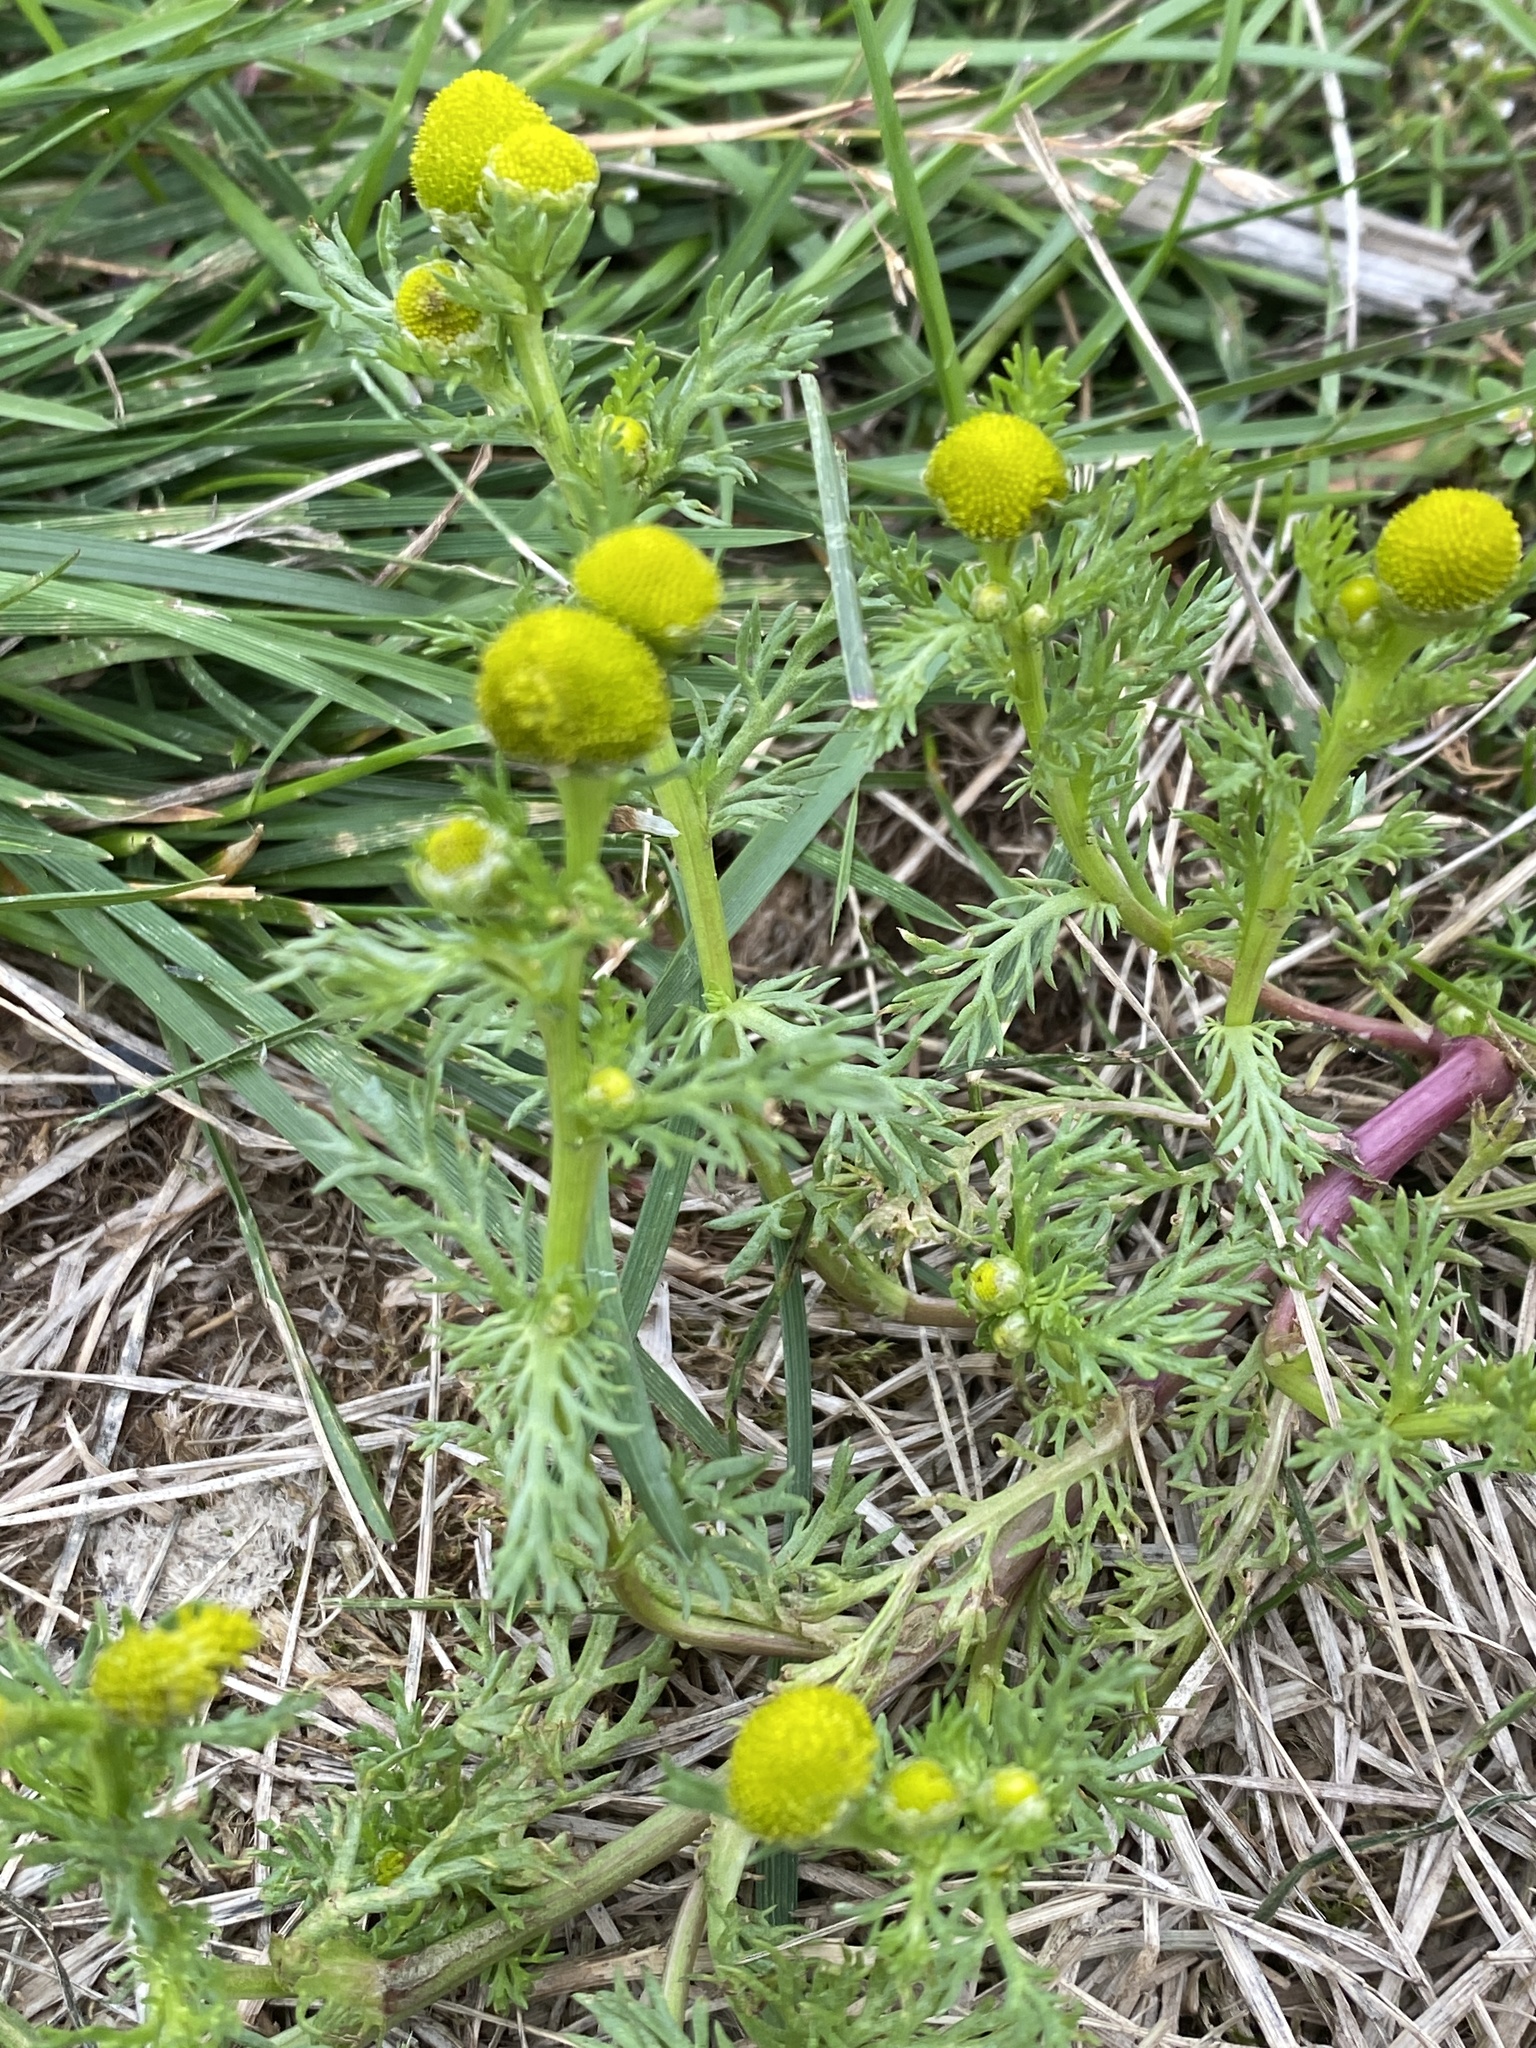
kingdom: Plantae
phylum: Tracheophyta
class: Magnoliopsida
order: Asterales
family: Asteraceae
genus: Matricaria
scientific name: Matricaria discoidea
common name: Disc mayweed
